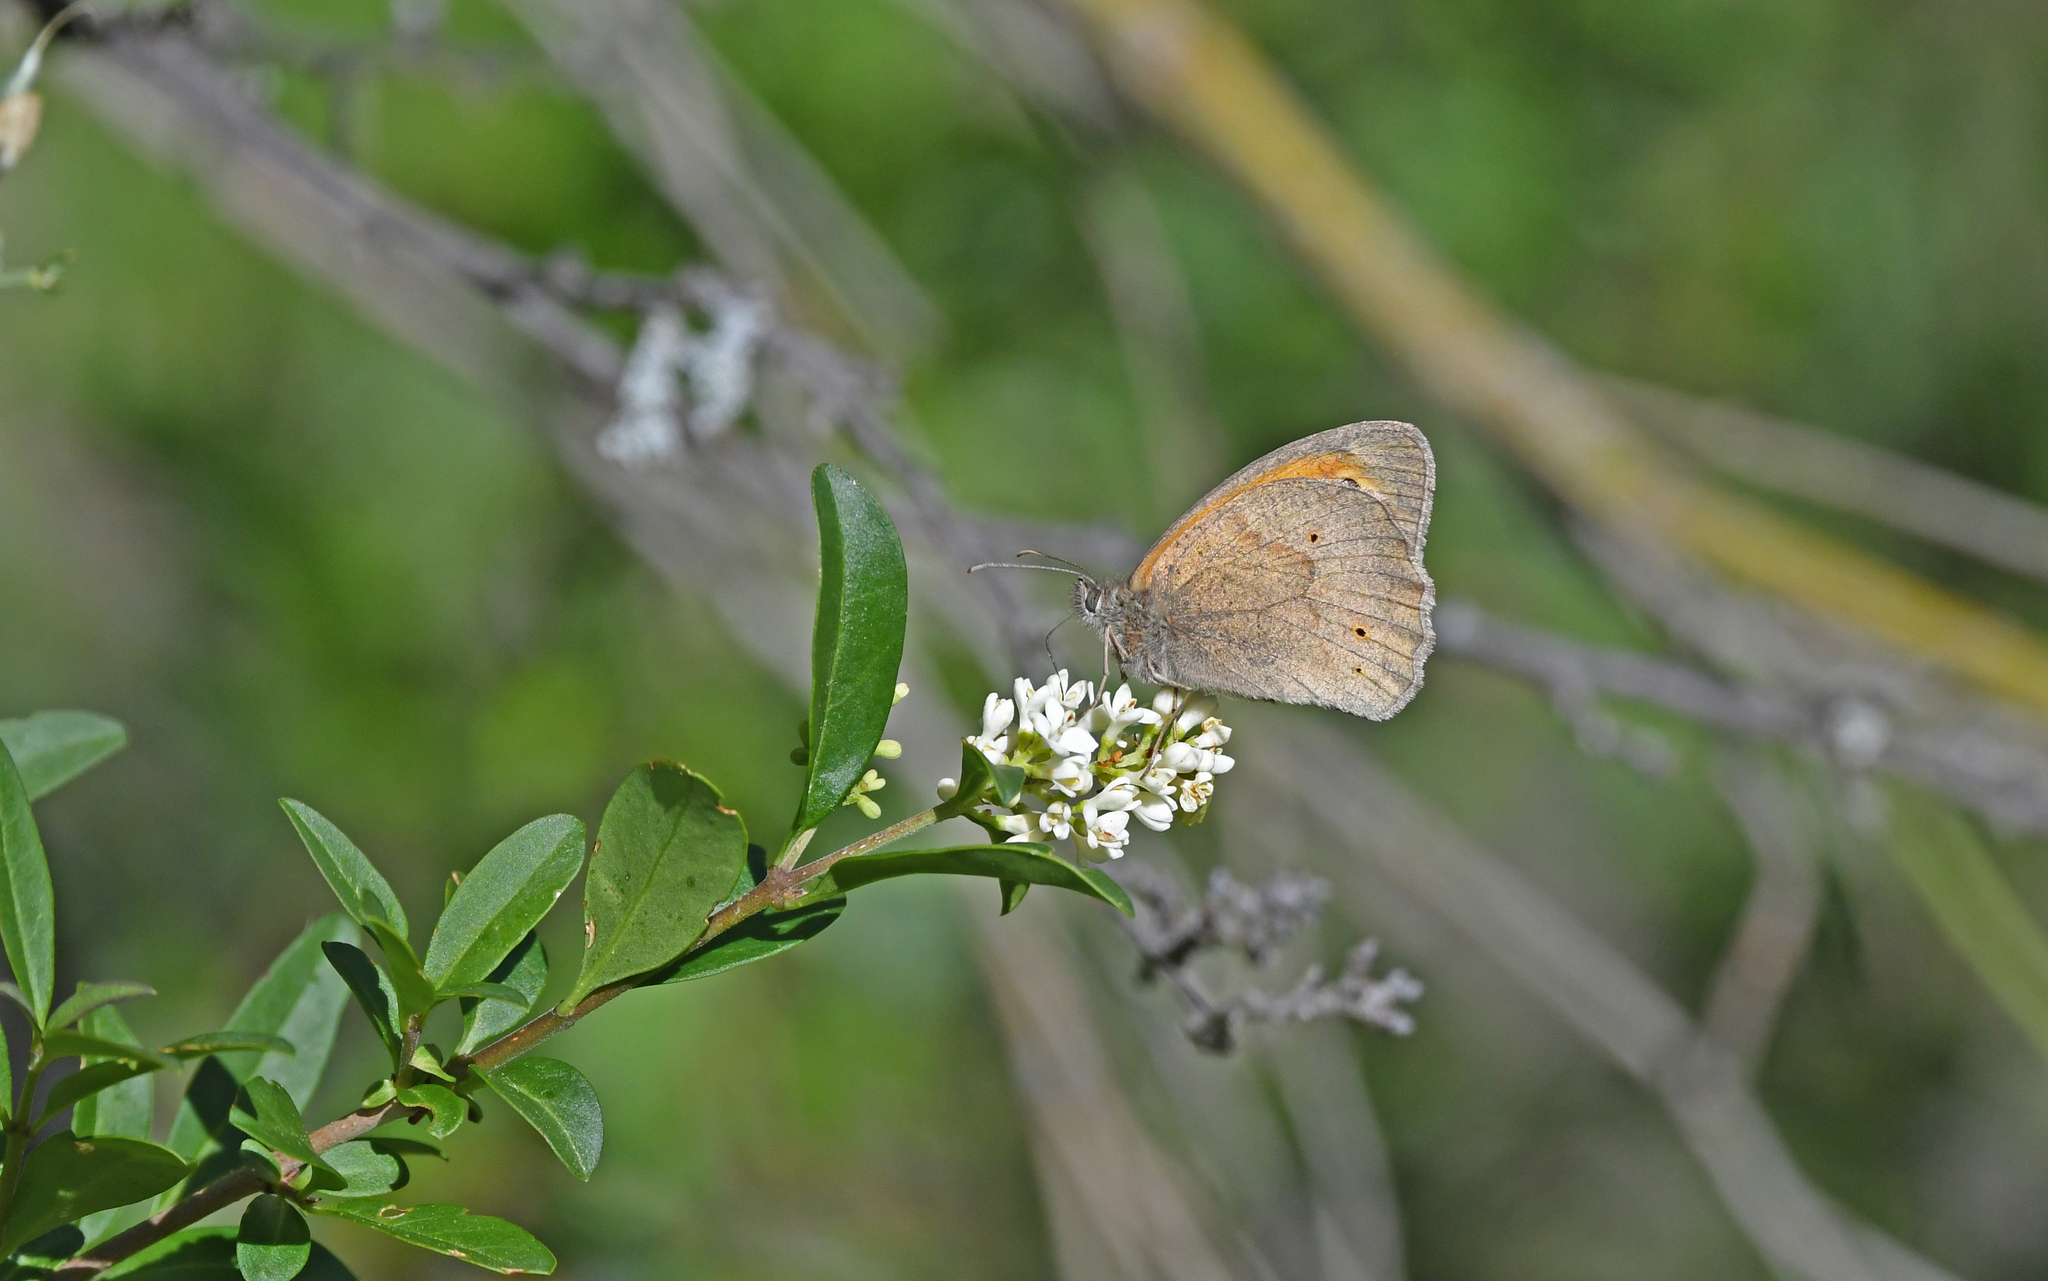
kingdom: Animalia
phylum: Arthropoda
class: Insecta
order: Lepidoptera
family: Nymphalidae
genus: Maniola
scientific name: Maniola jurtina
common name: Meadow brown
